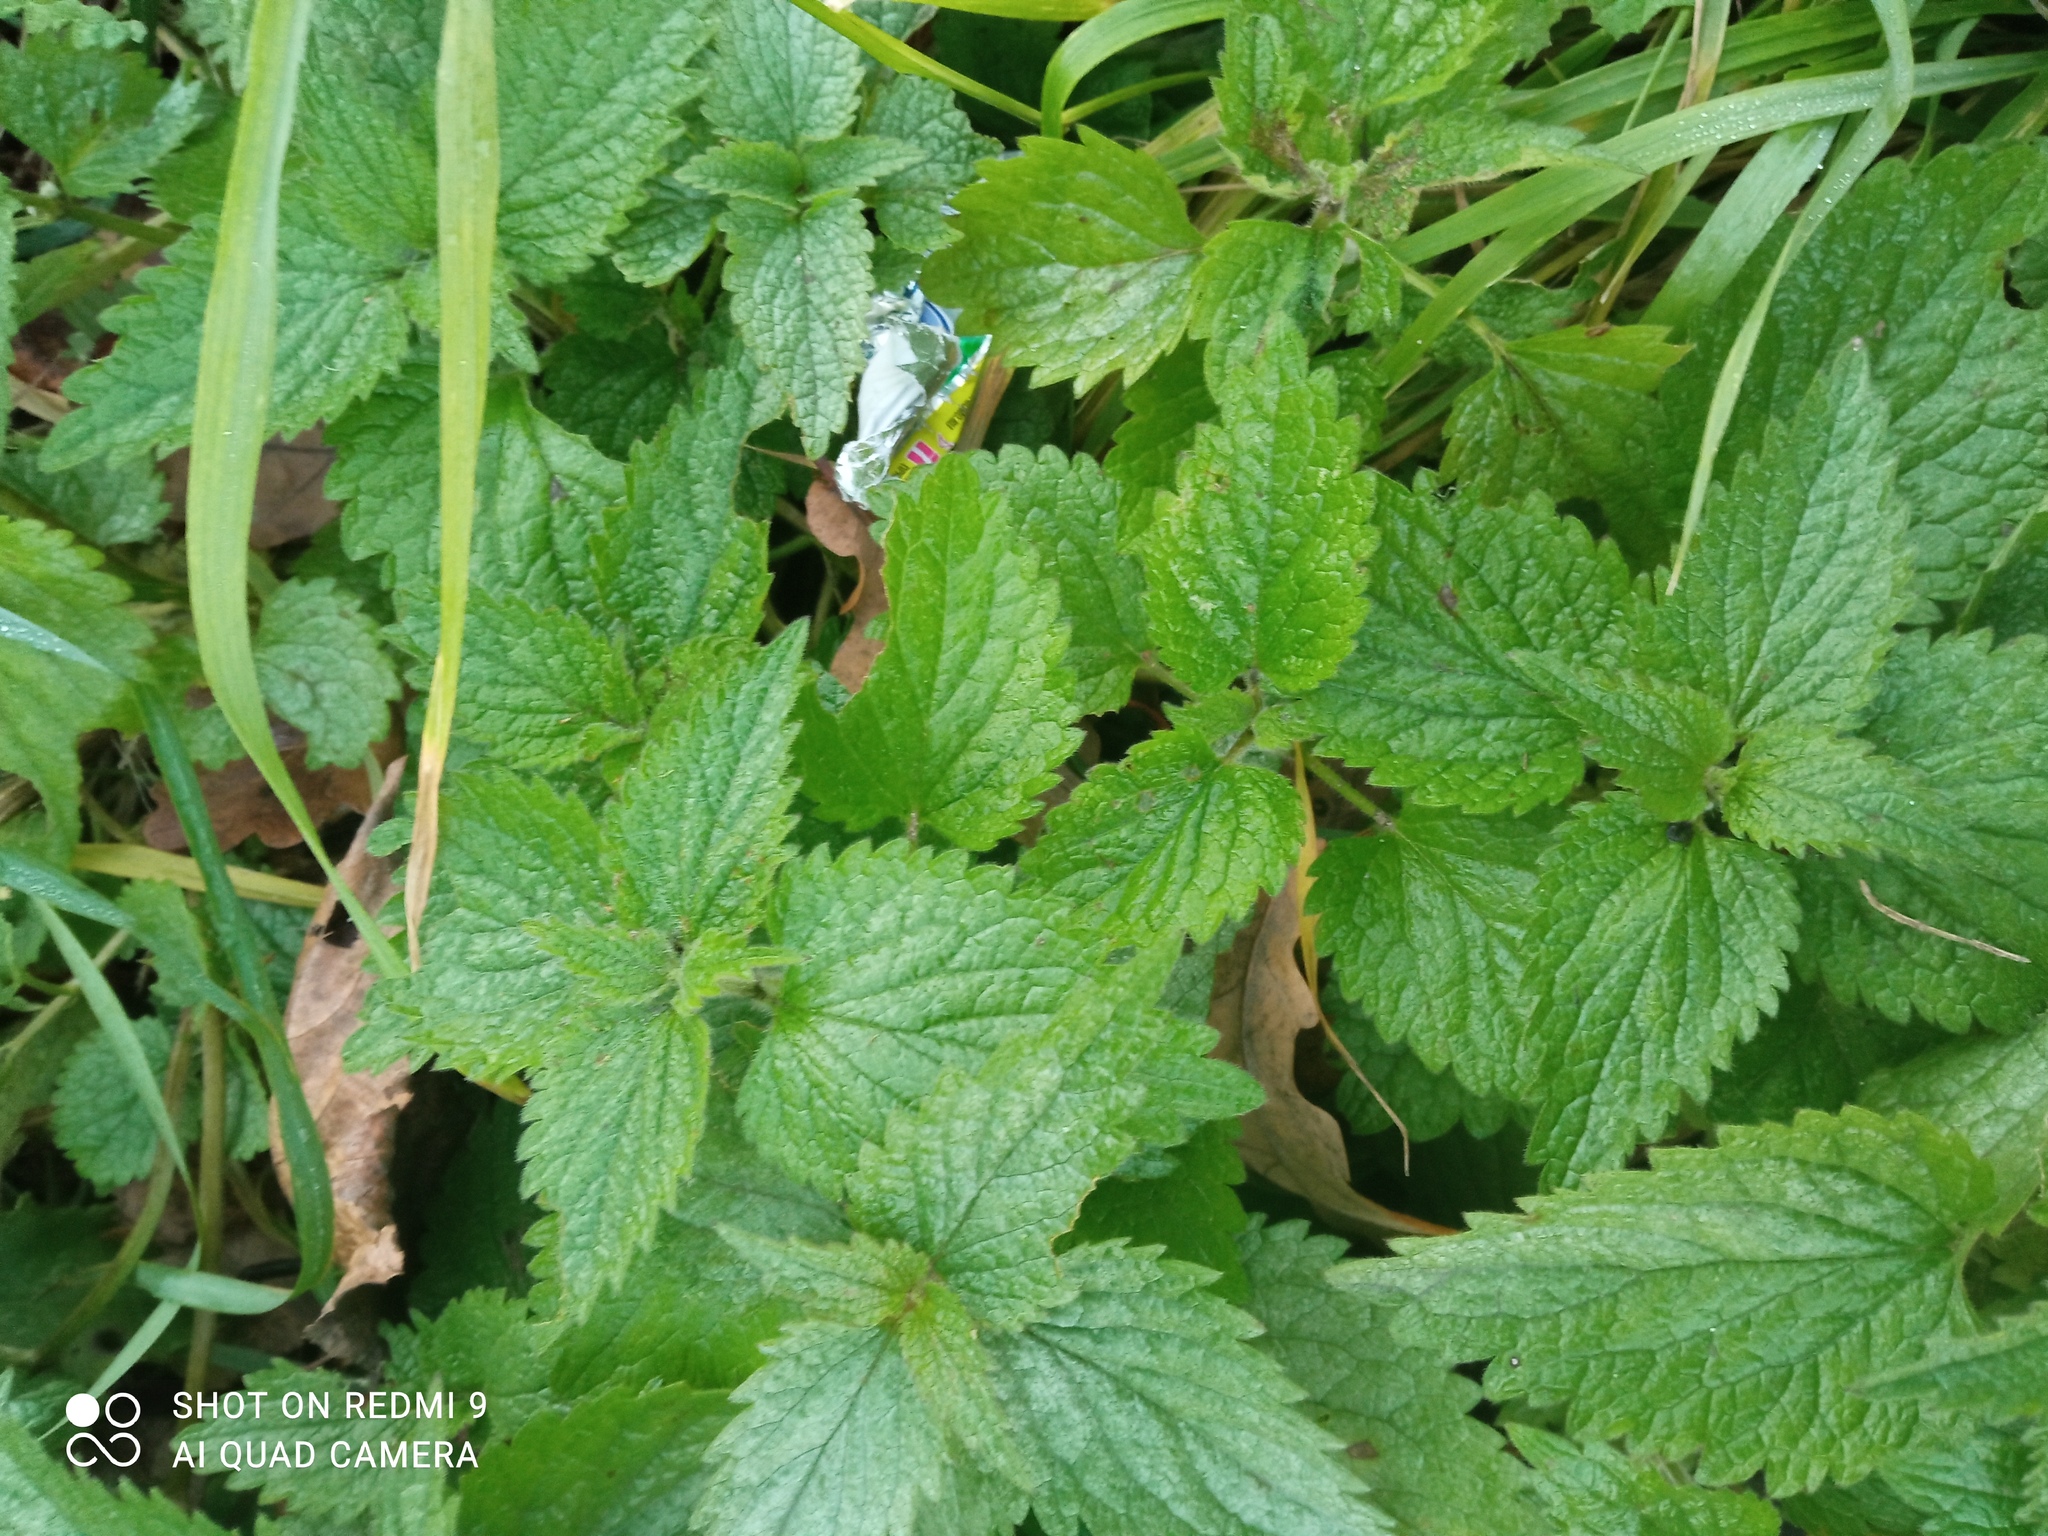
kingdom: Plantae
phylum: Tracheophyta
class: Magnoliopsida
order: Lamiales
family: Lamiaceae
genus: Lamium
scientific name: Lamium album
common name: White dead-nettle
